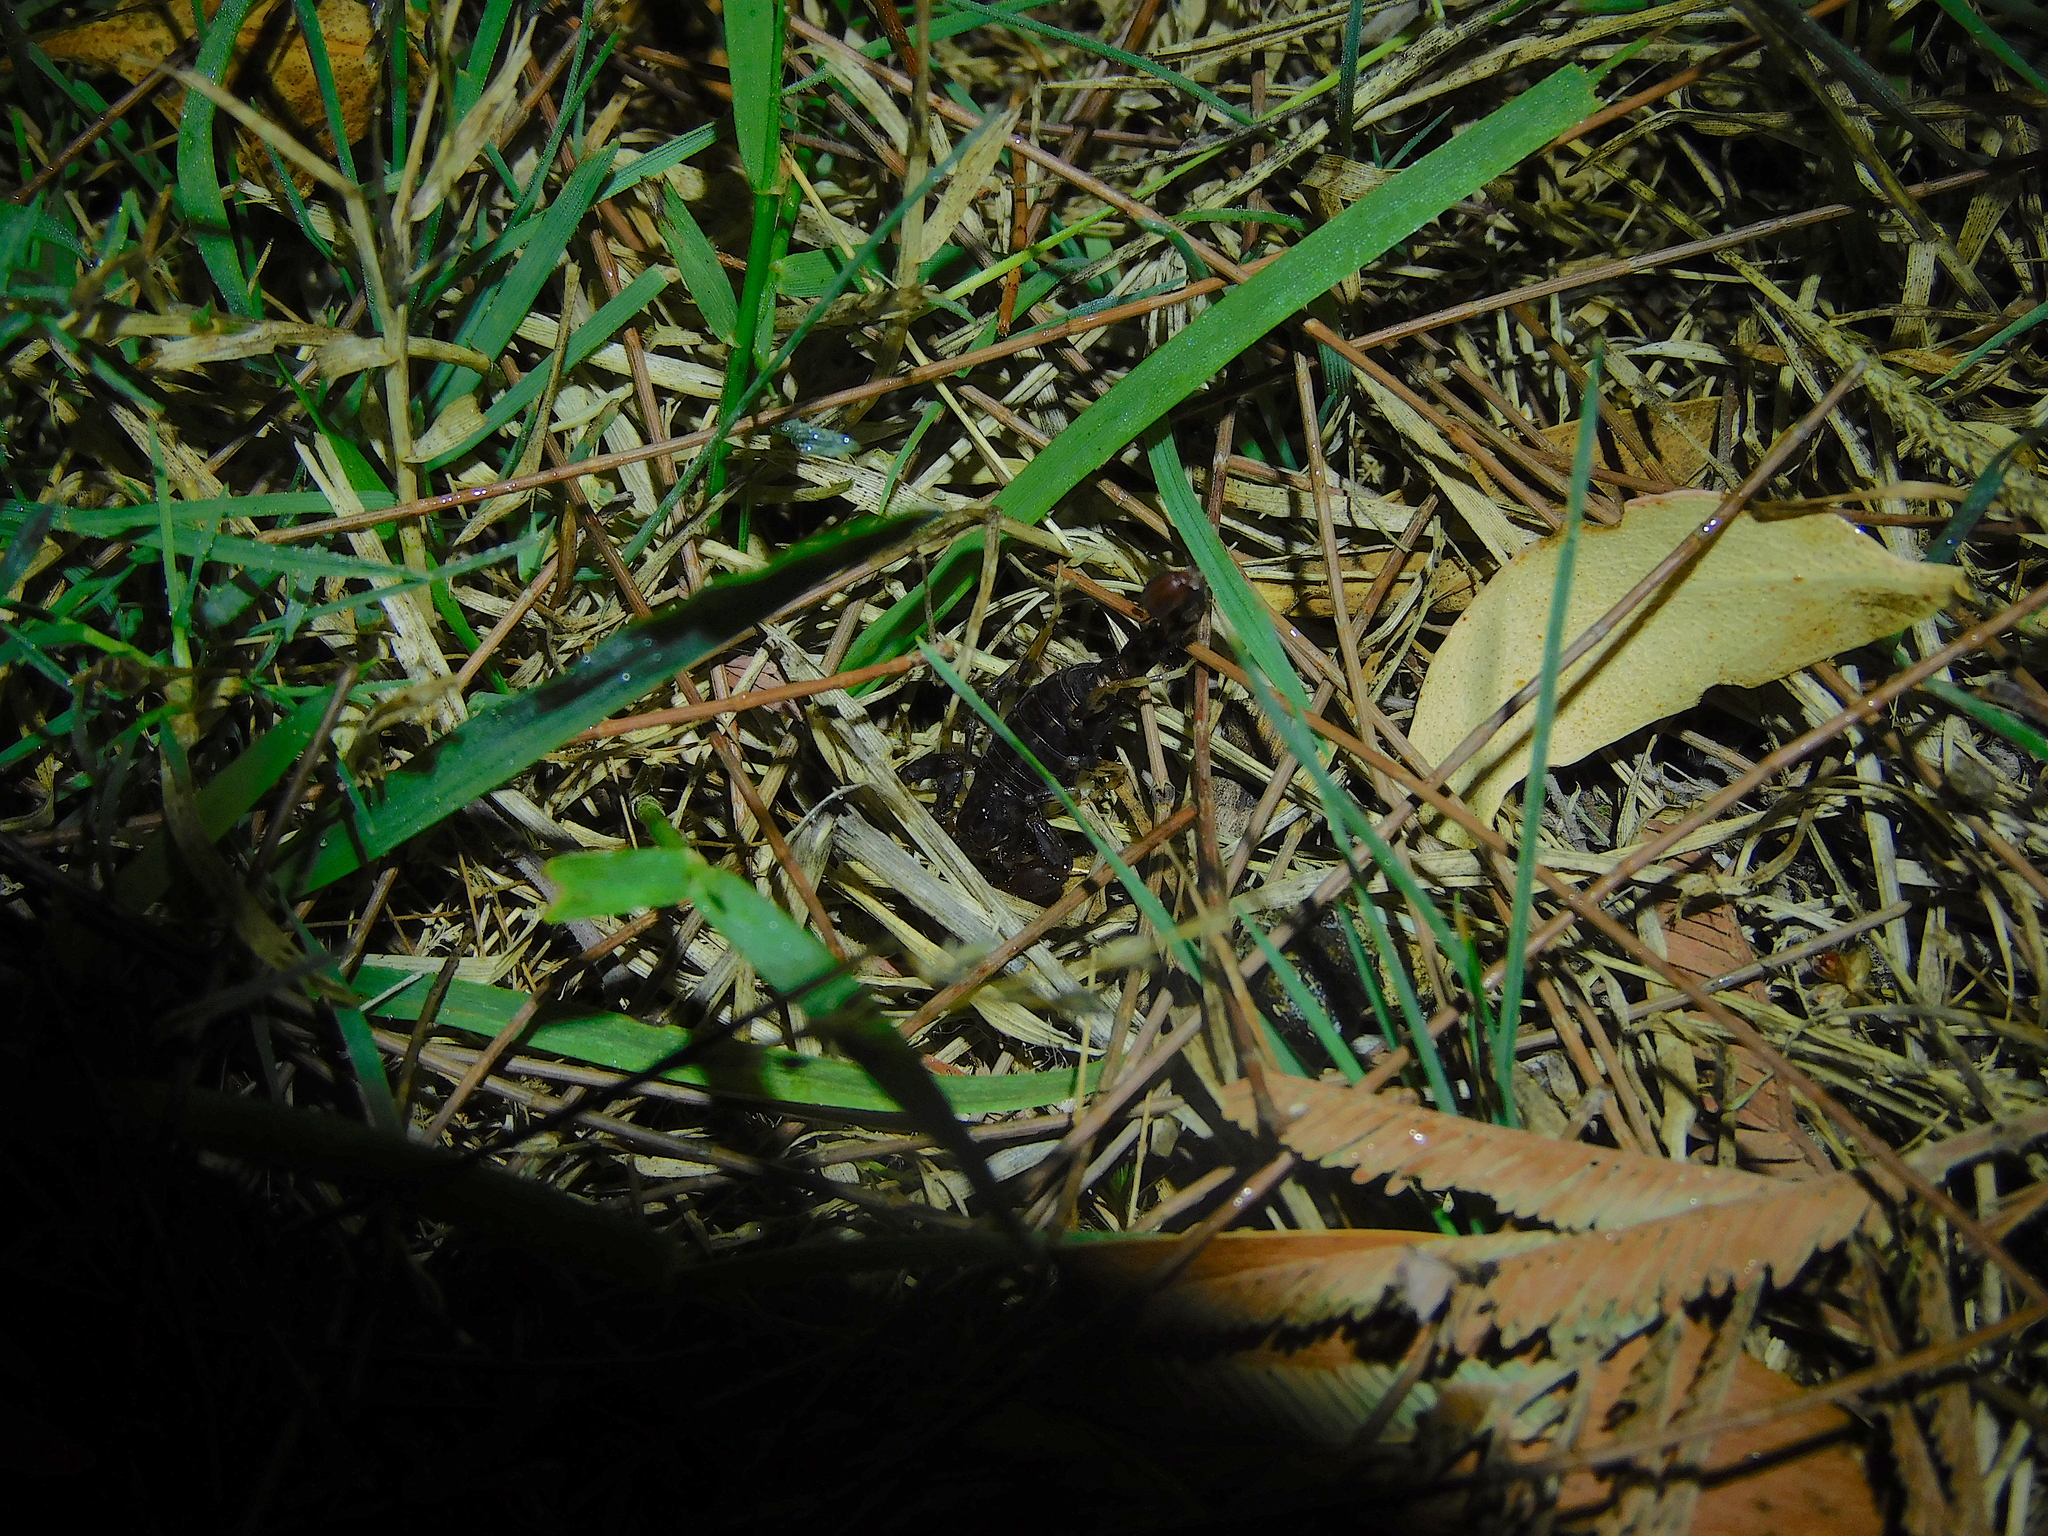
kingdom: Animalia
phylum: Arthropoda
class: Arachnida
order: Scorpiones
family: Bothriuridae
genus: Cercophonius
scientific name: Cercophonius squama
